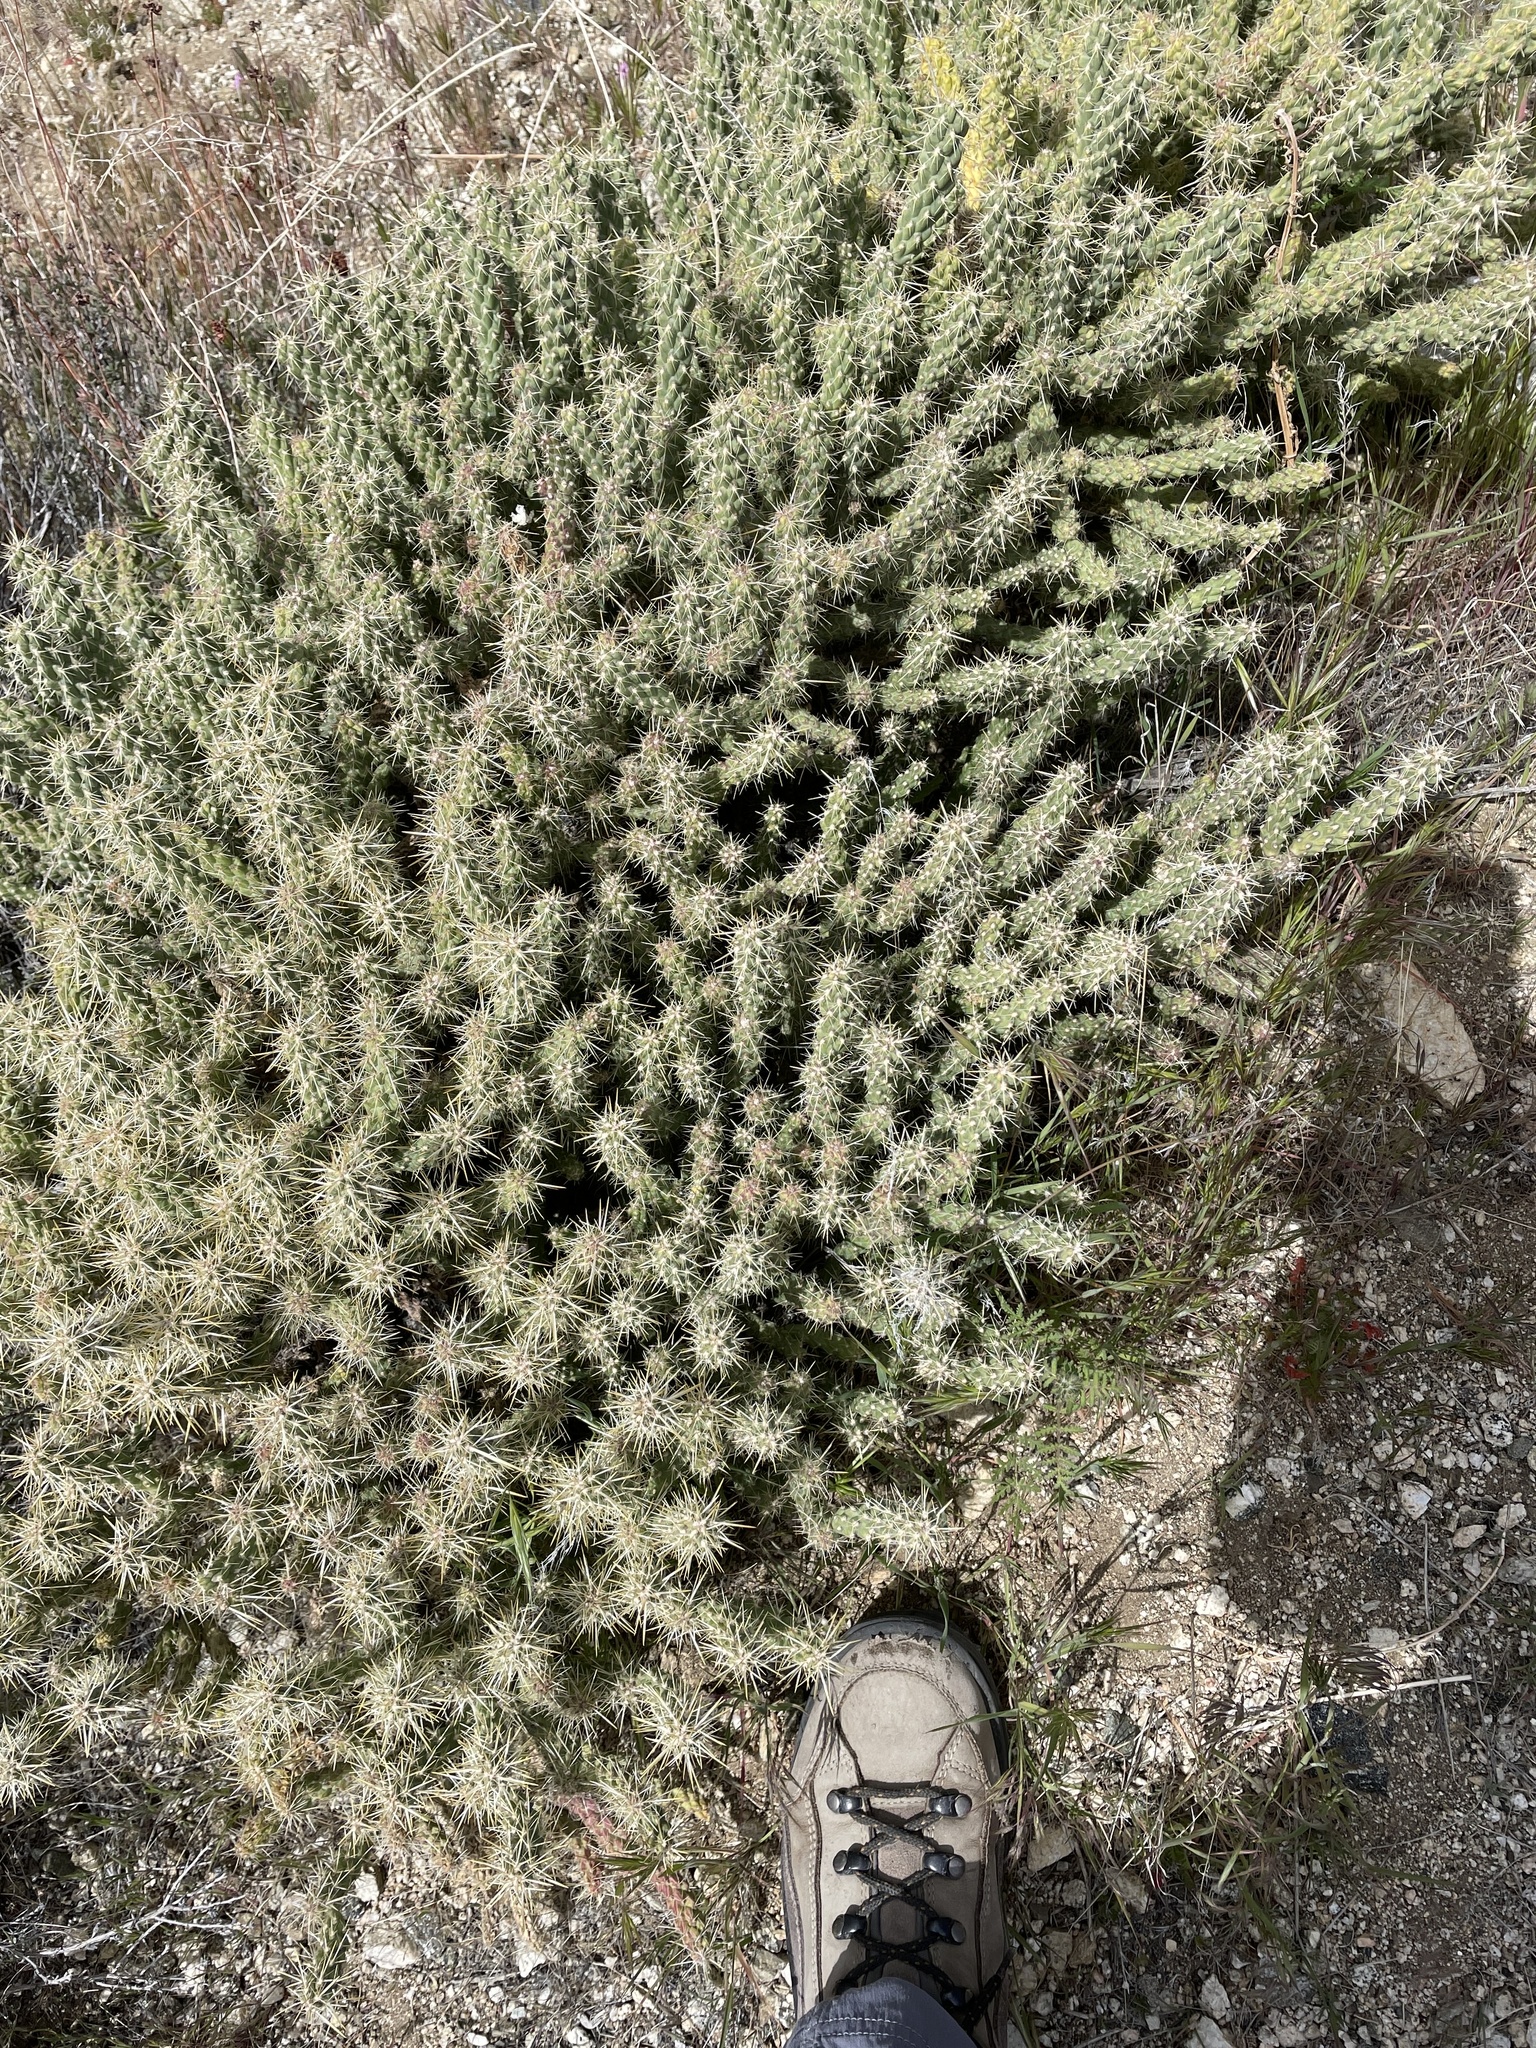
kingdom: Plantae
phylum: Tracheophyta
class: Magnoliopsida
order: Caryophyllales
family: Cactaceae
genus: Cylindropuntia
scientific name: Cylindropuntia echinocarpa
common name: Ground cholla
